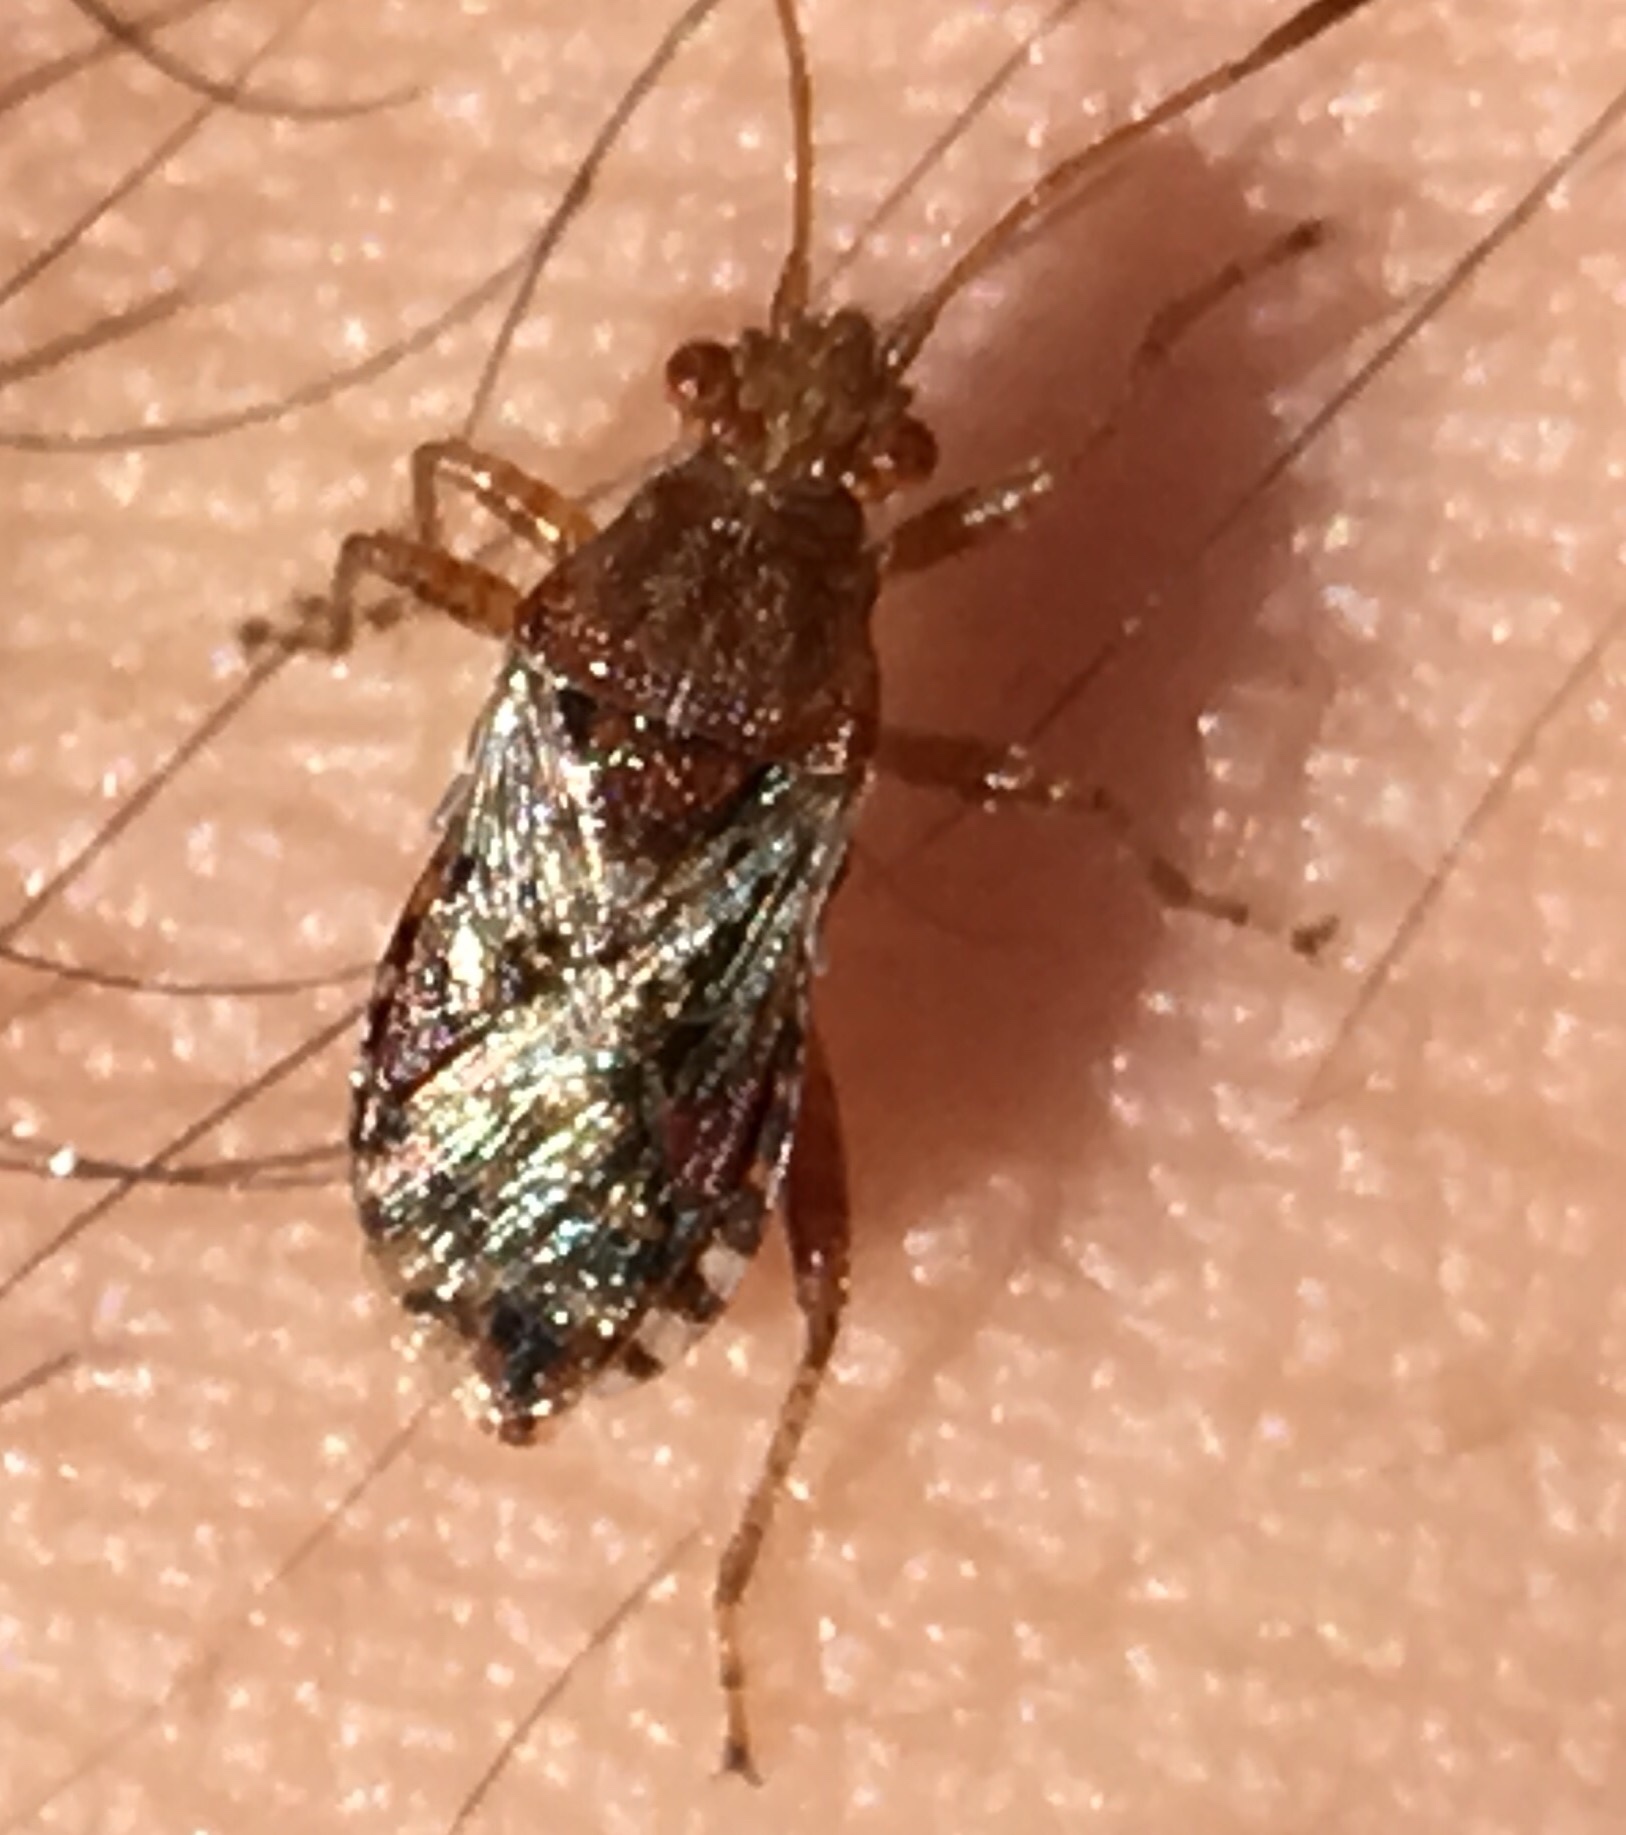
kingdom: Animalia
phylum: Arthropoda
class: Insecta
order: Hemiptera
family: Rhopalidae
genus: Rhopalus
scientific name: Rhopalus subrufus
